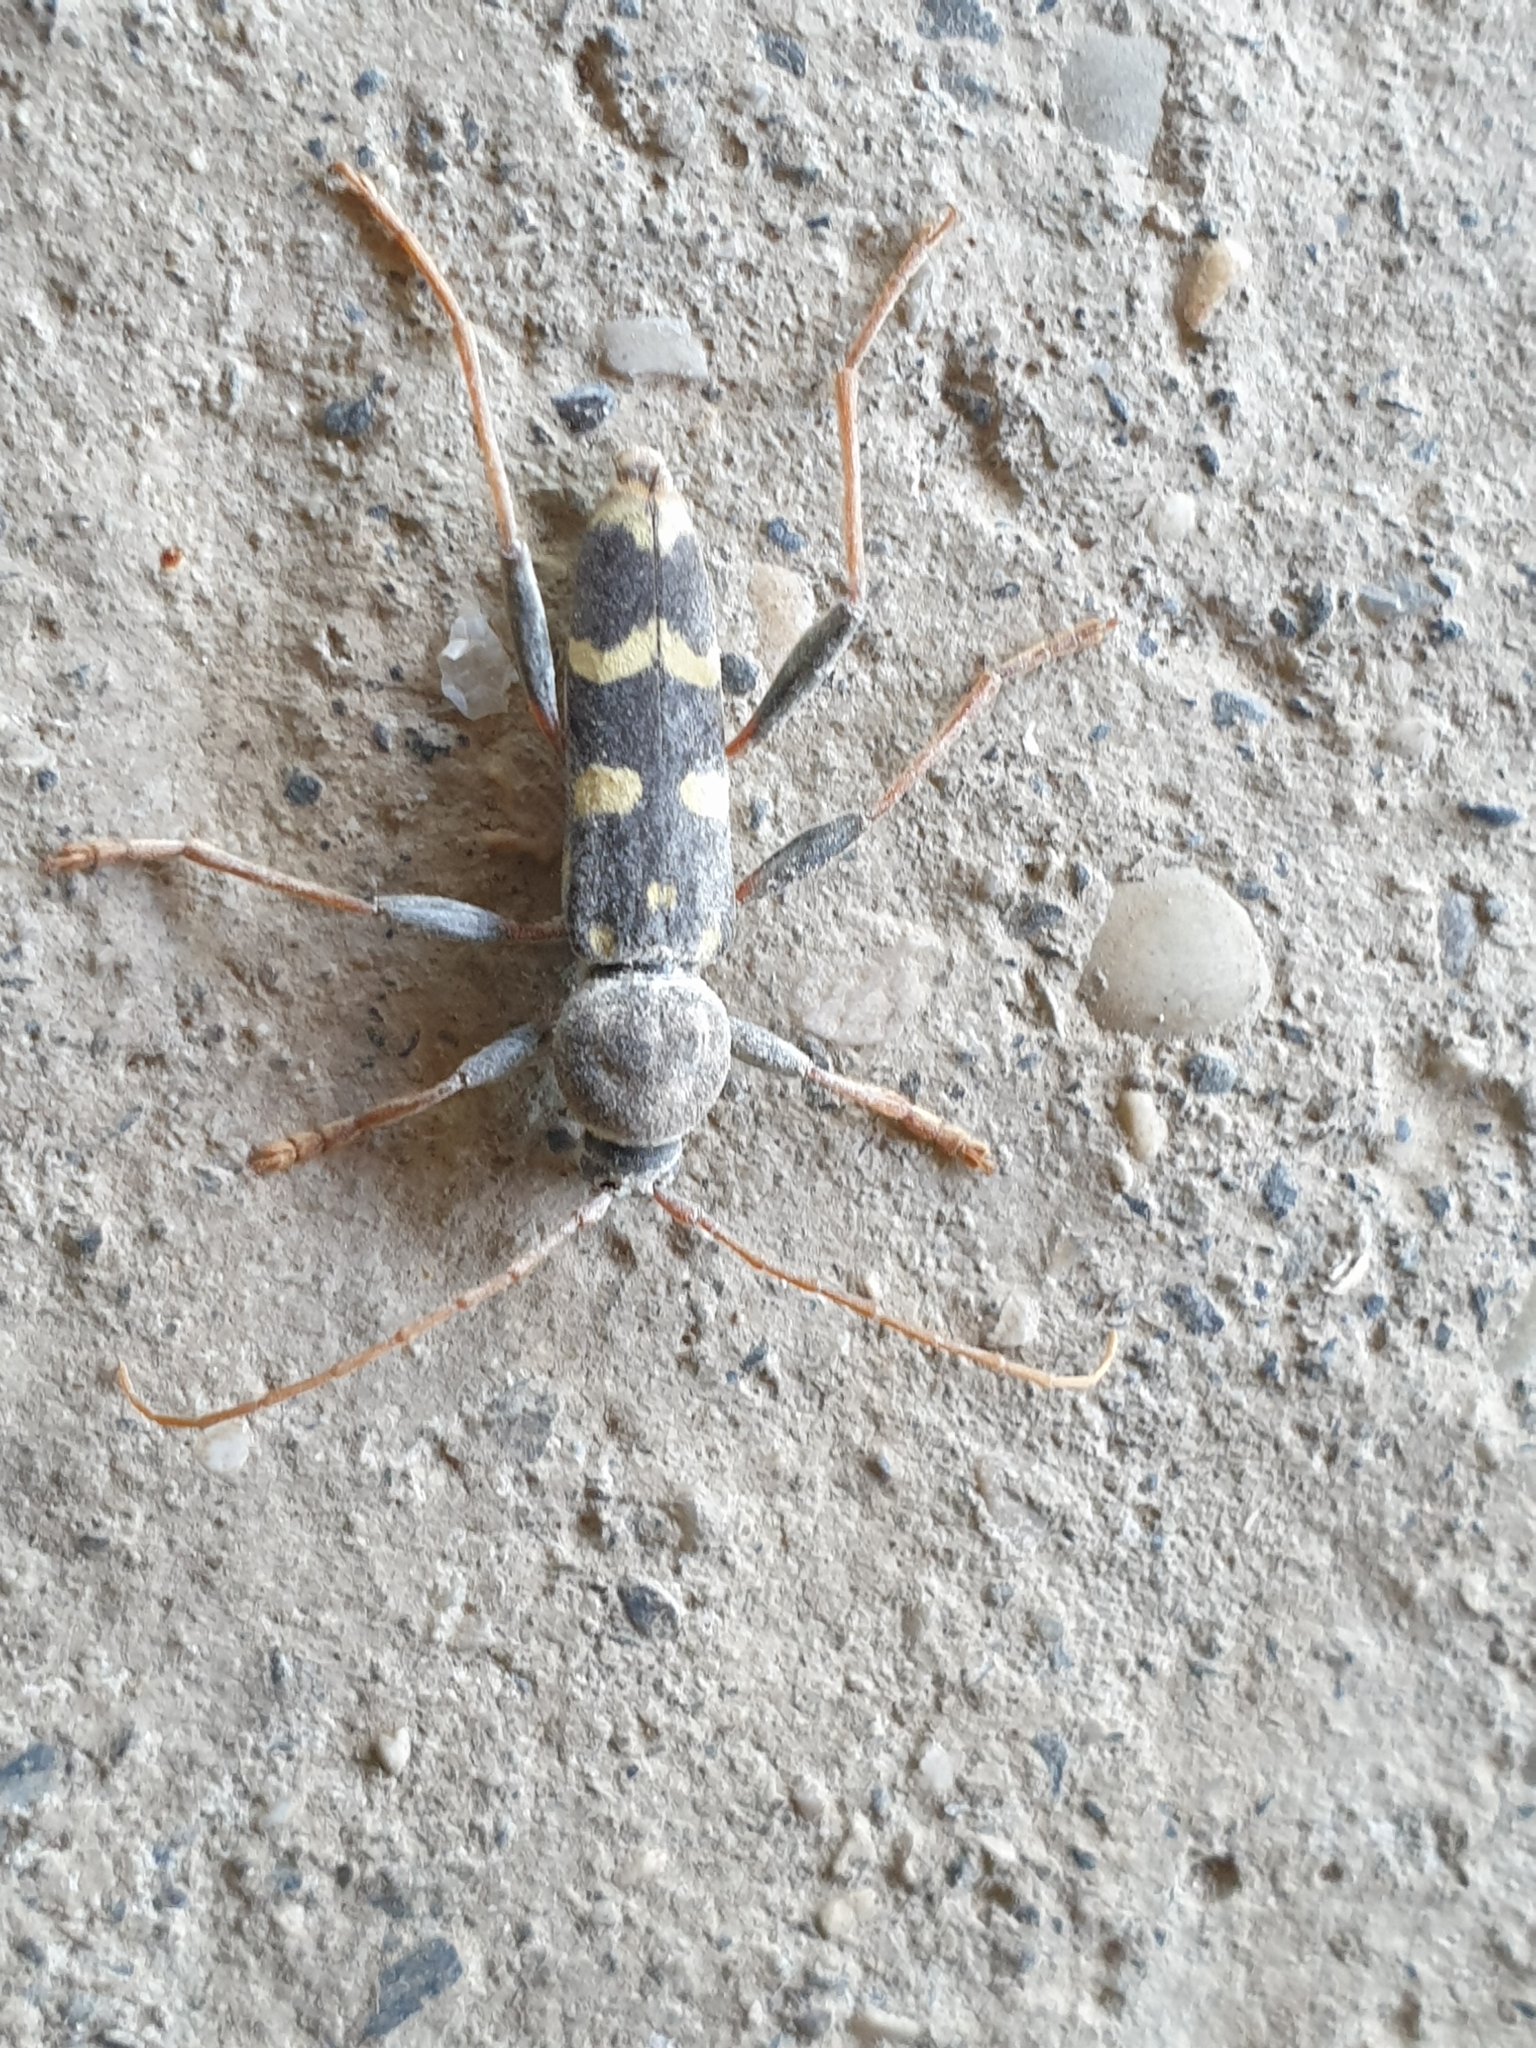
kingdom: Animalia
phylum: Arthropoda
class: Insecta
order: Coleoptera
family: Cerambycidae
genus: Isotomus
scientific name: Isotomus speciosus
